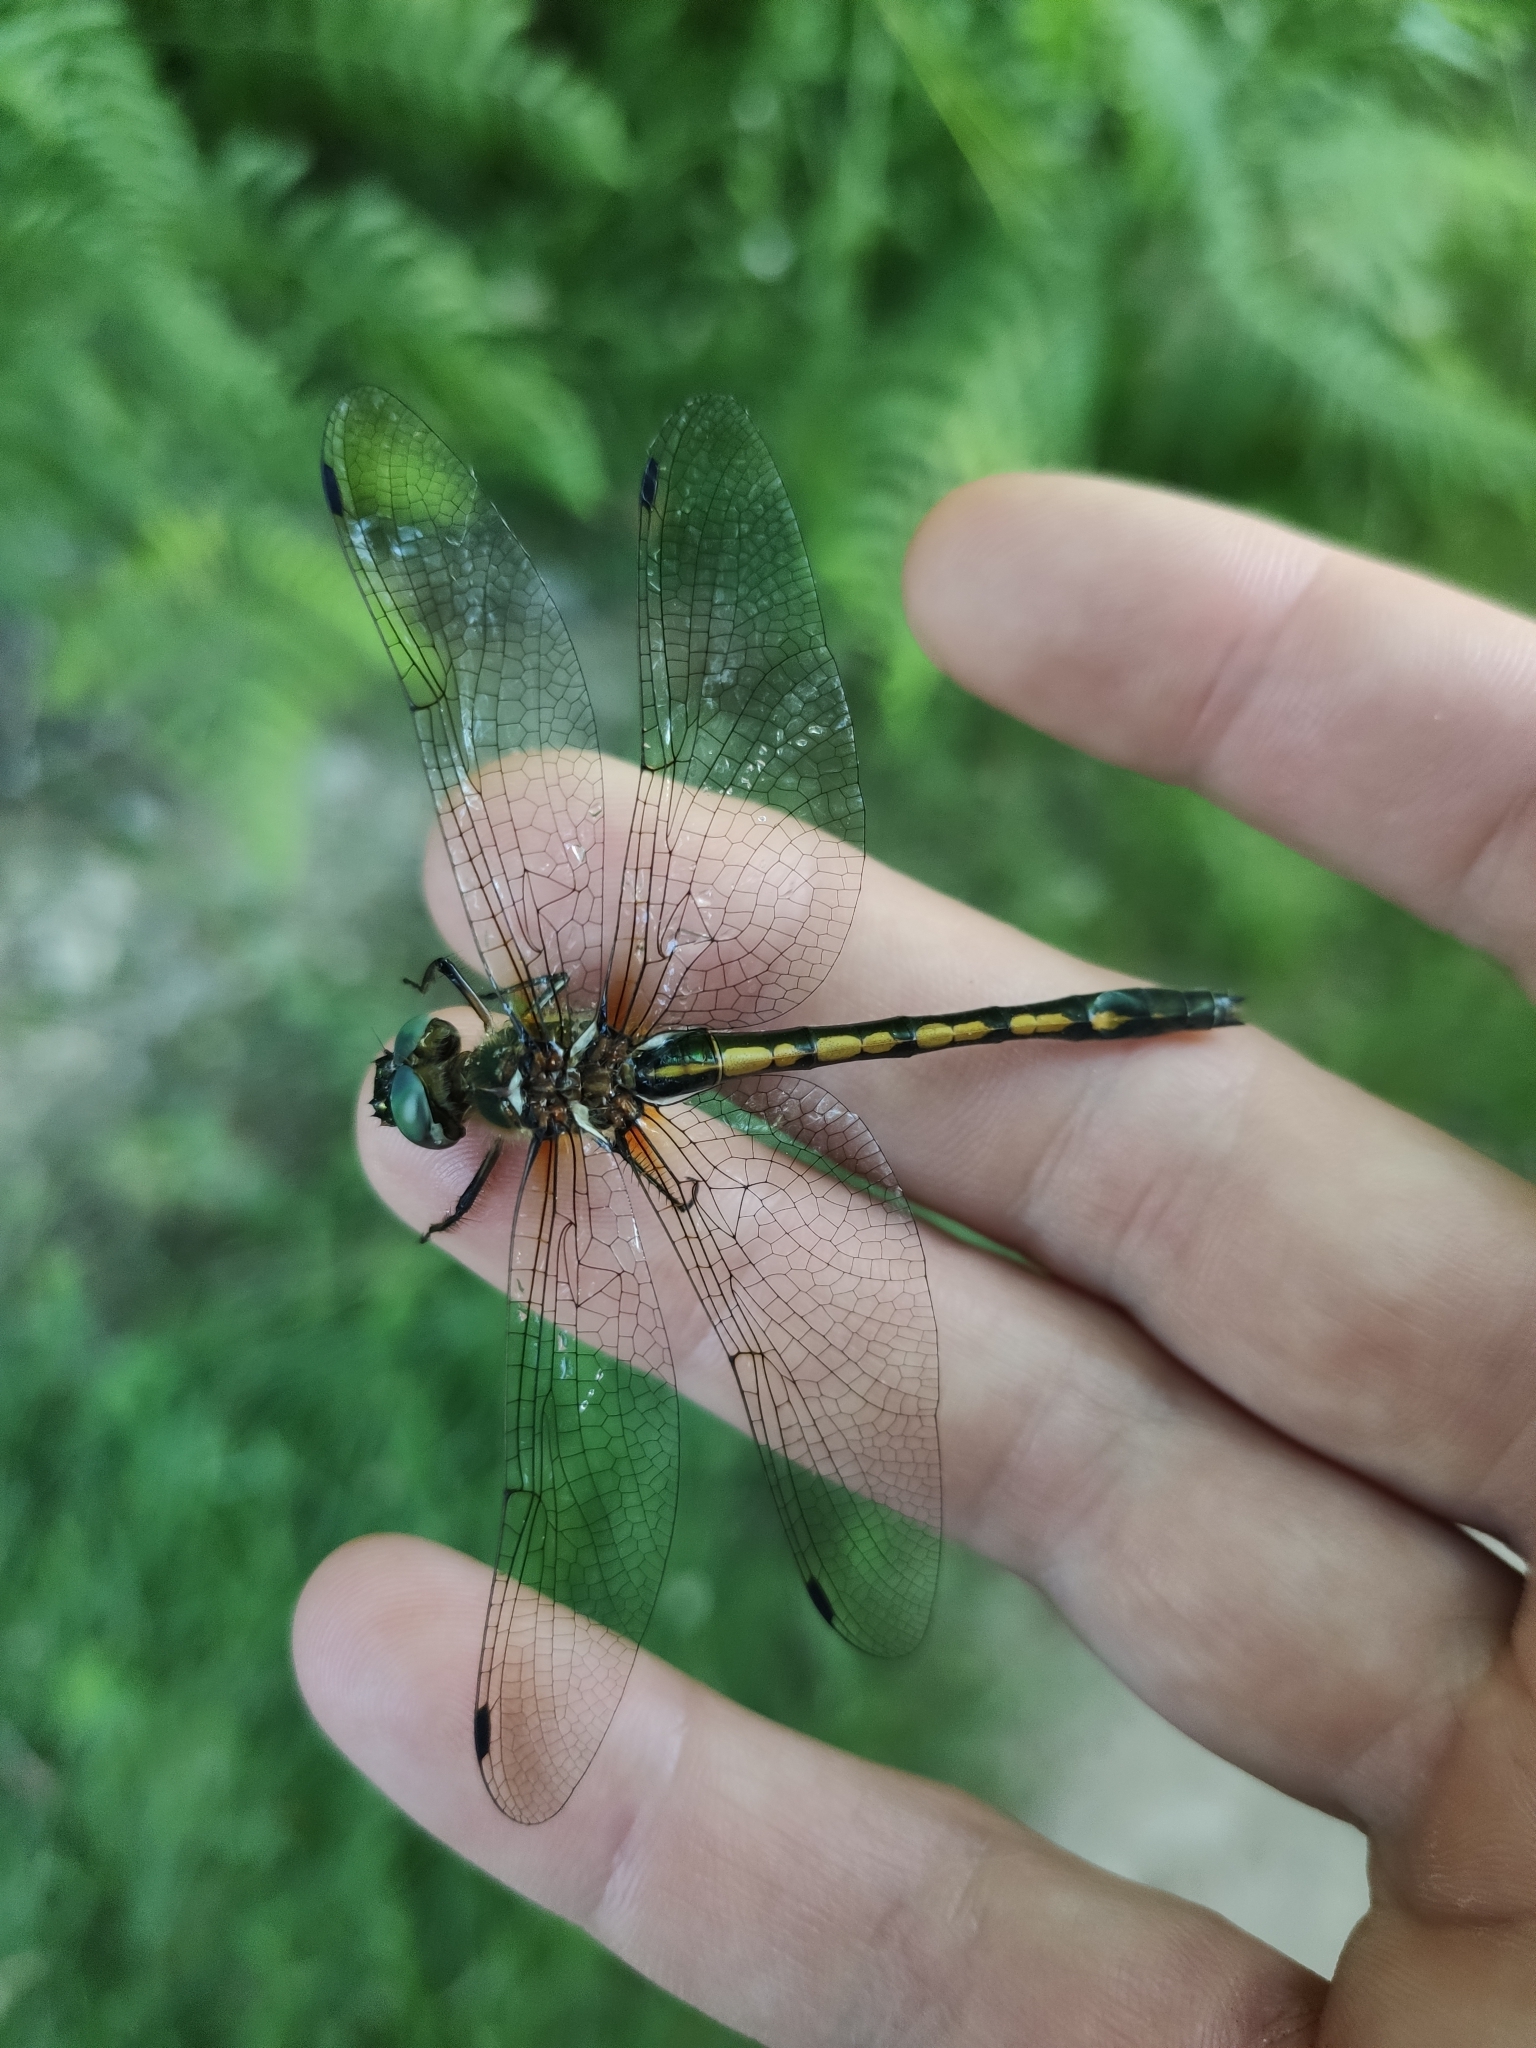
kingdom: Animalia
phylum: Arthropoda
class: Insecta
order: Odonata
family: Corduliidae
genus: Oxygastra
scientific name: Oxygastra curtisii
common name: Orange-spotted emerald
